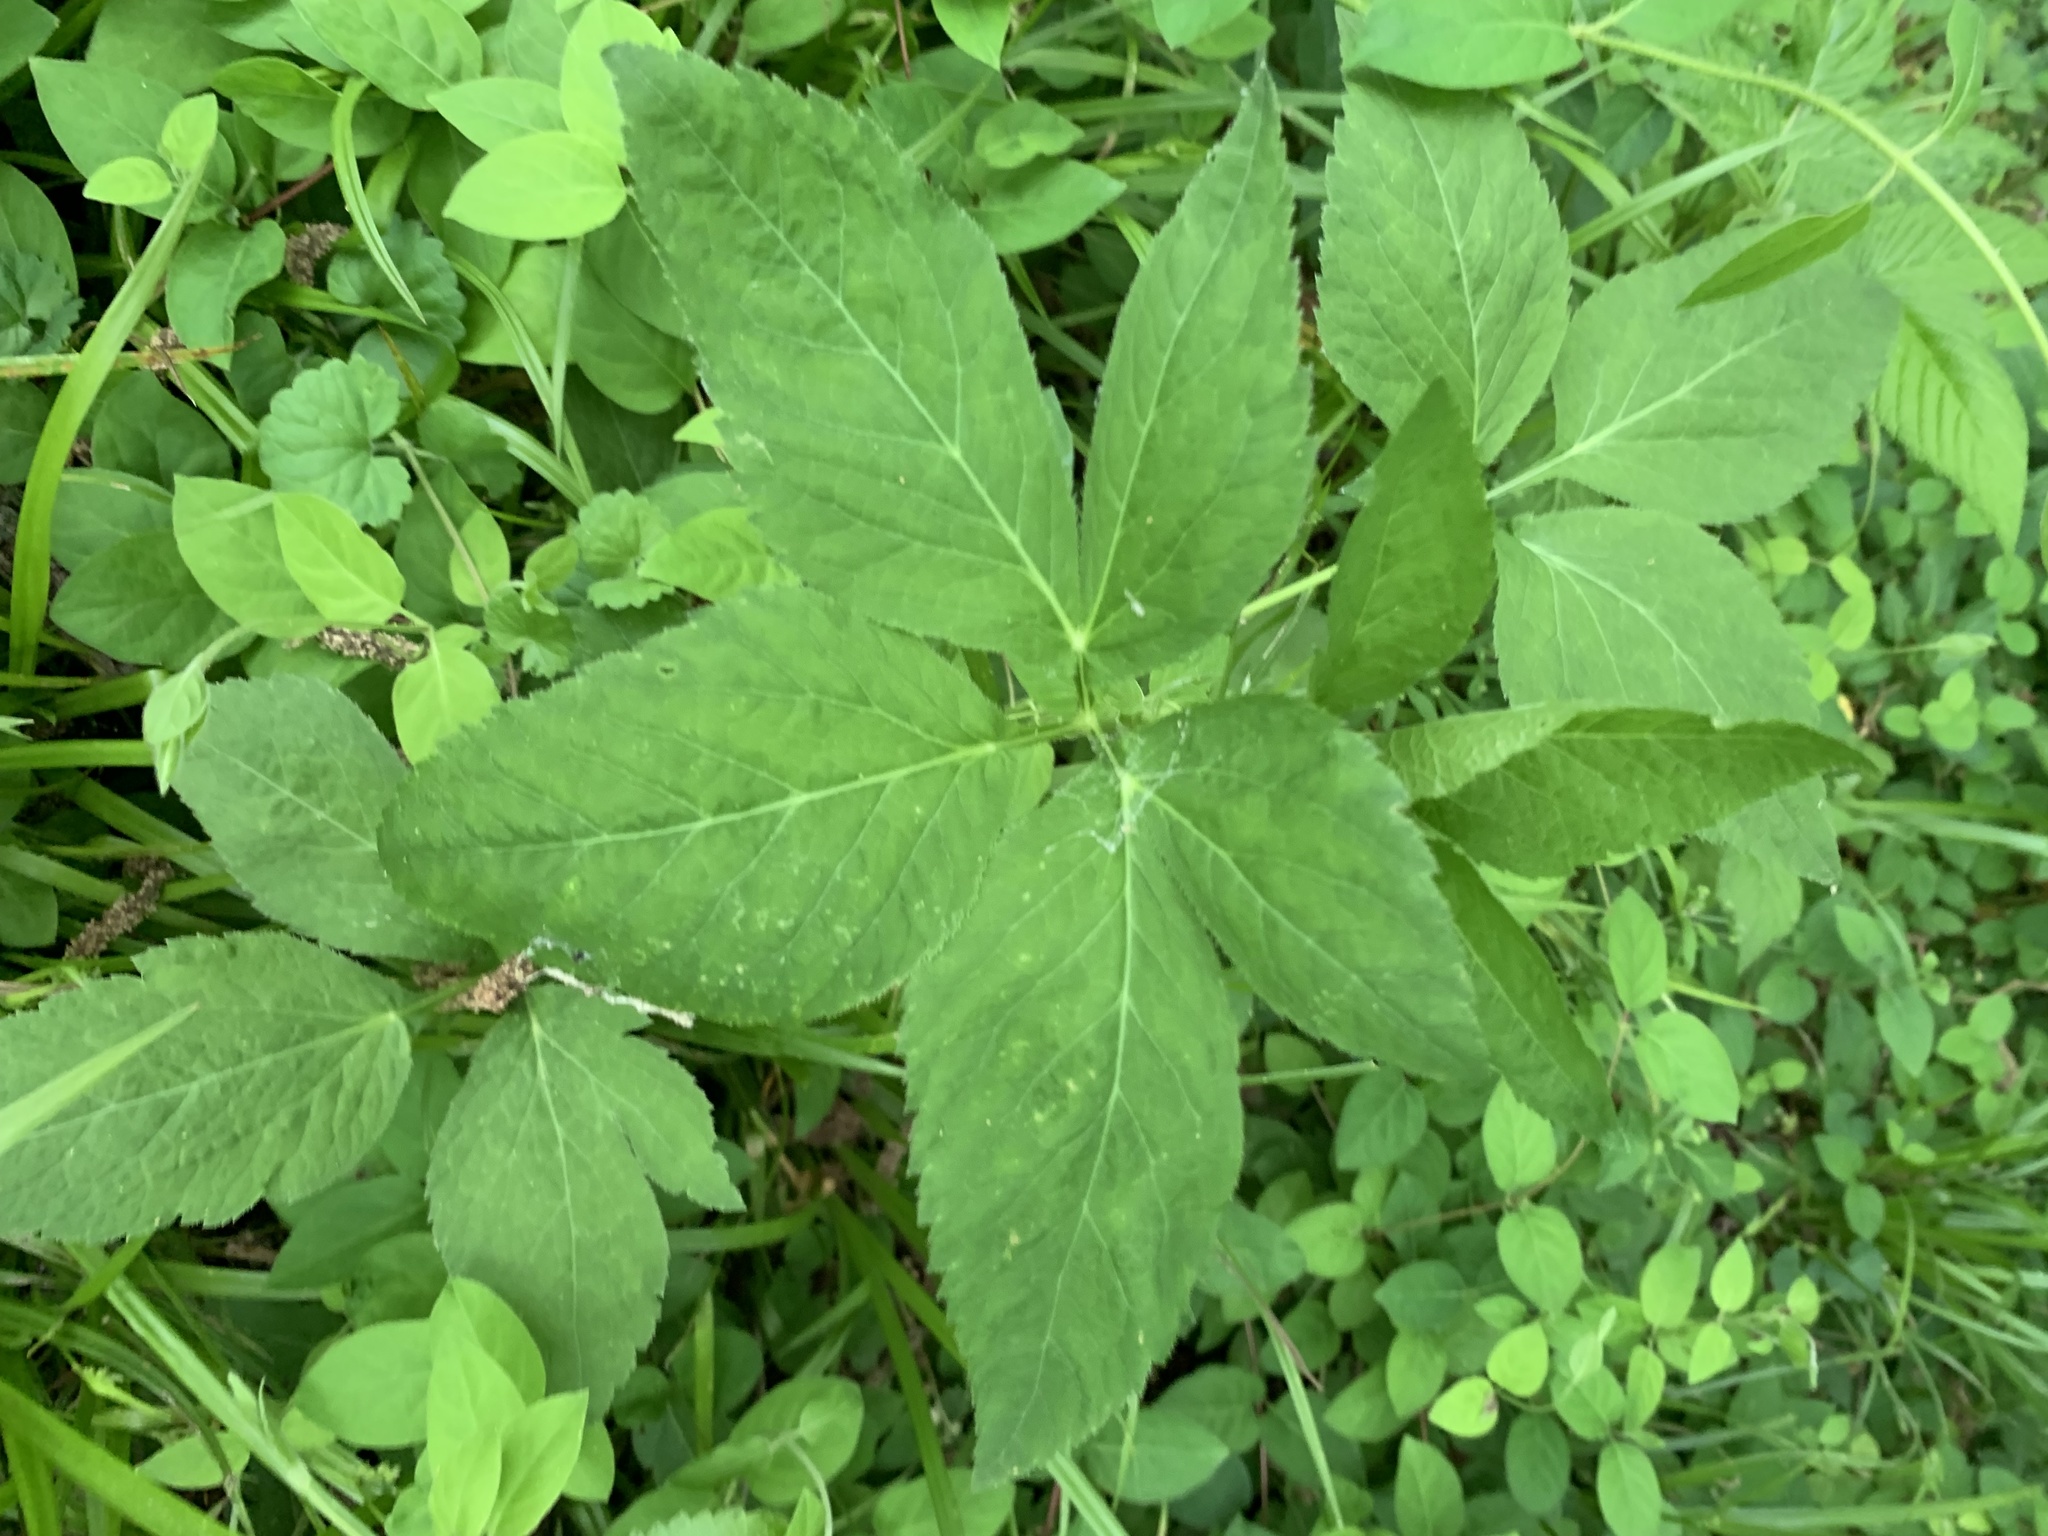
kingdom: Plantae
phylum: Tracheophyta
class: Magnoliopsida
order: Apiales
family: Apiaceae
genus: Cryptotaenia
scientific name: Cryptotaenia canadensis
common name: Honewort
